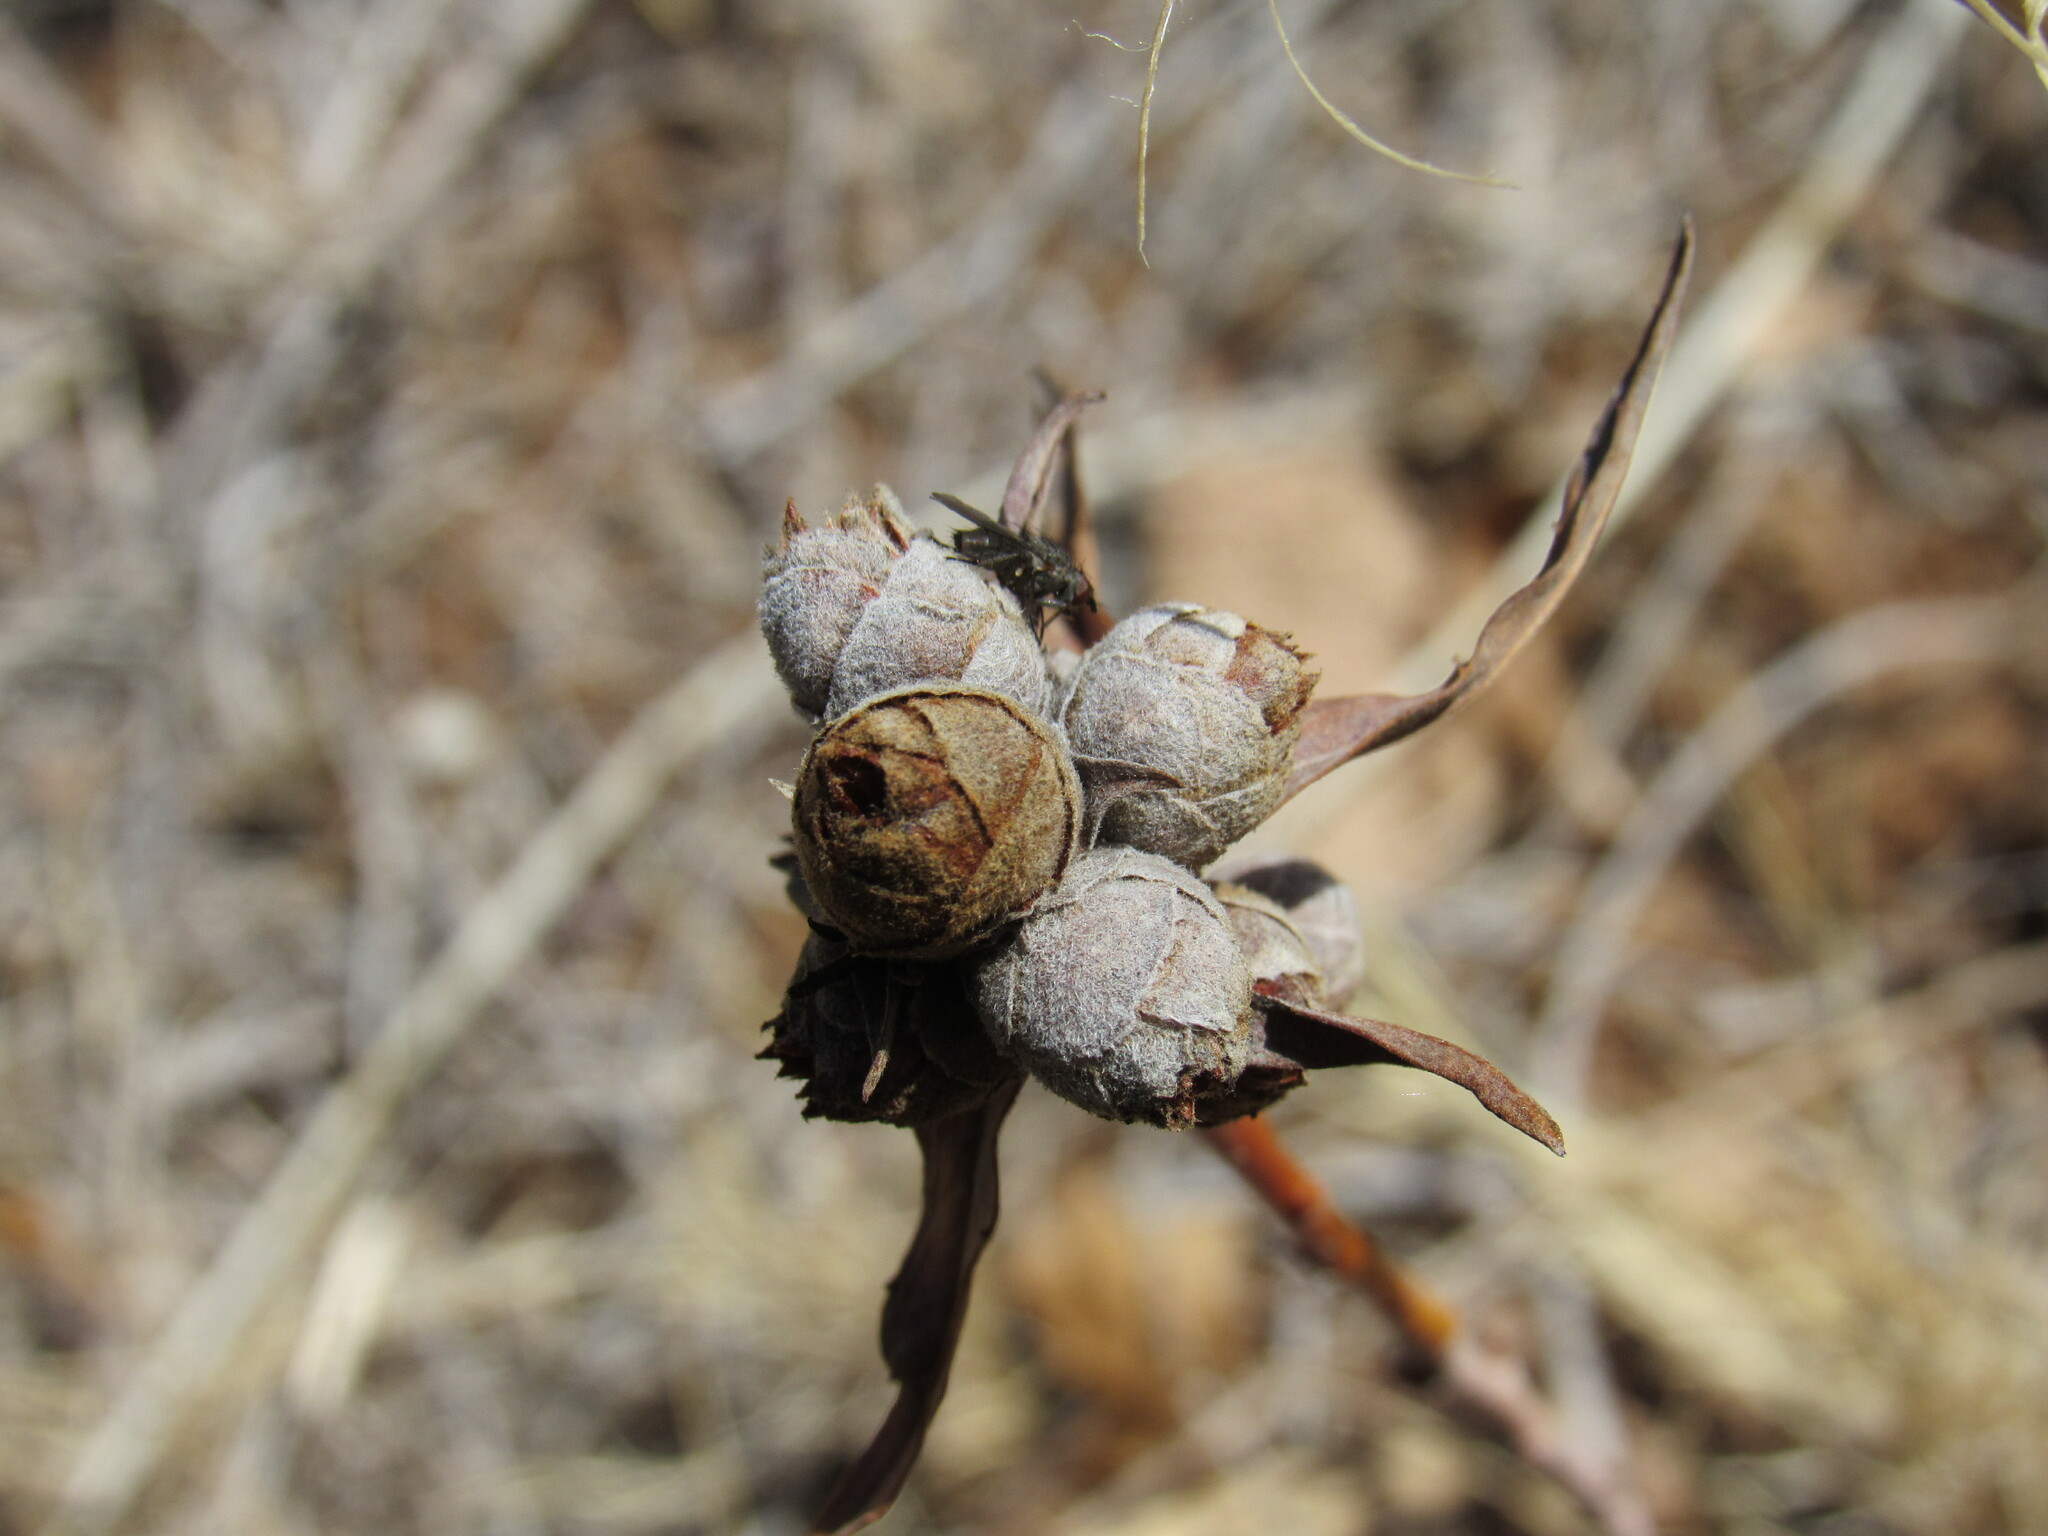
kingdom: Animalia
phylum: Arthropoda
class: Insecta
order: Diptera
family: Cecidomyiidae
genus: Rabdophaga
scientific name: Rabdophaga strobiloides
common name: Willow pinecone gall midge
